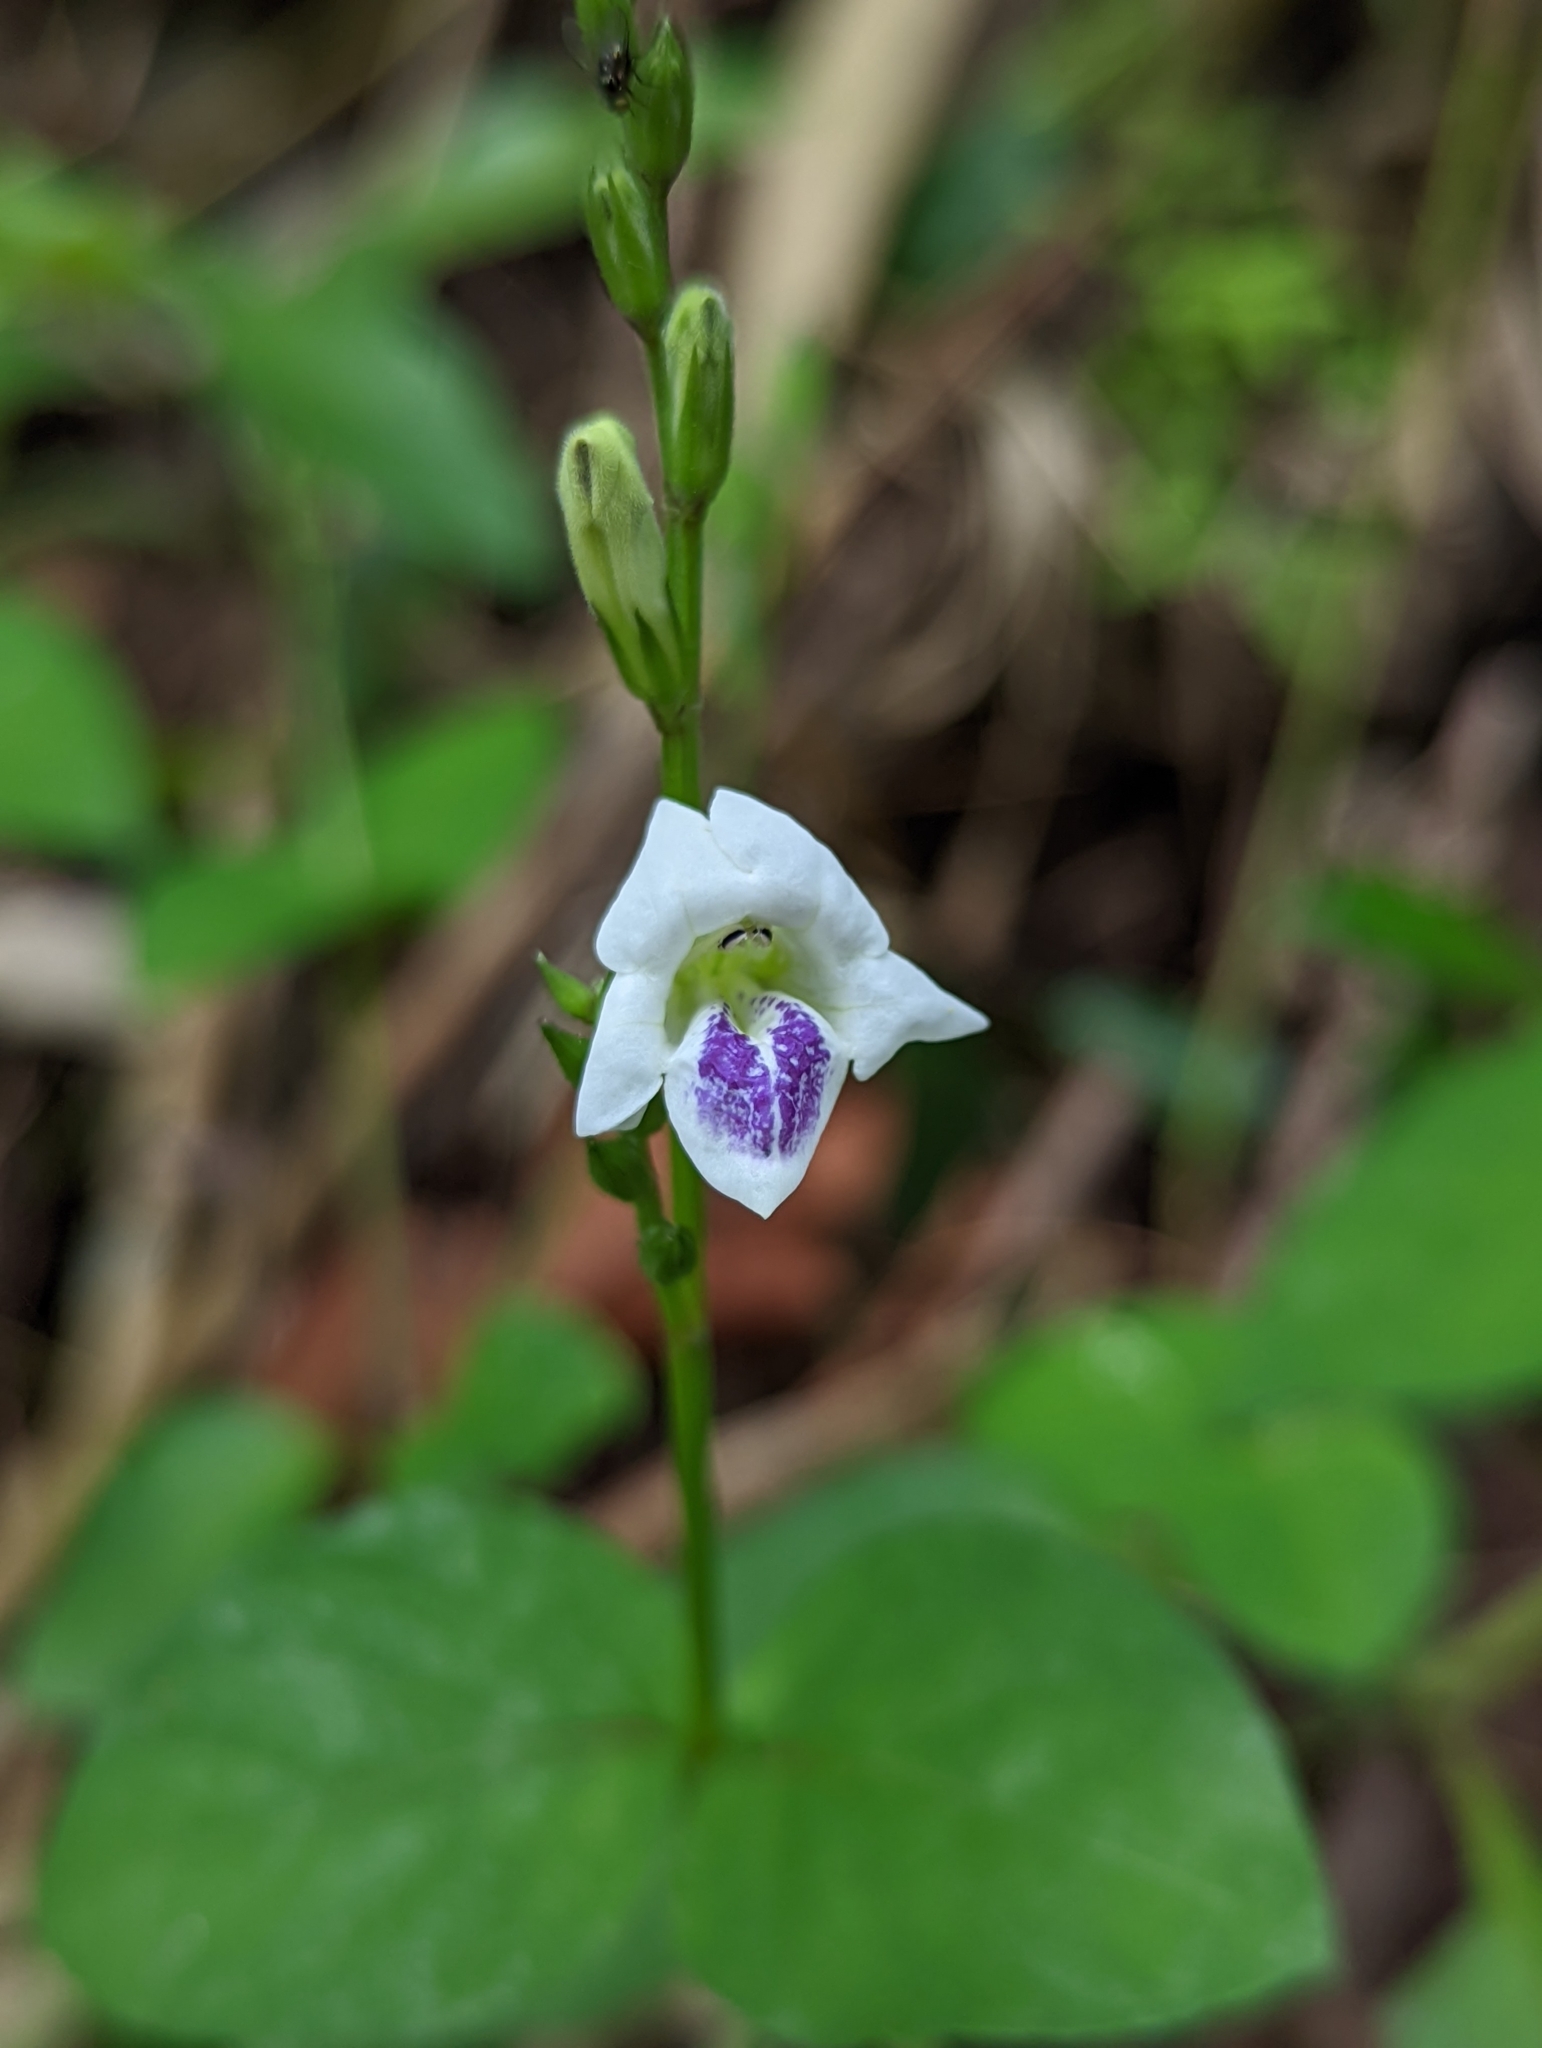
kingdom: Plantae
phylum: Tracheophyta
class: Magnoliopsida
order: Lamiales
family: Acanthaceae
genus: Asystasia
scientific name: Asystasia intrusa
